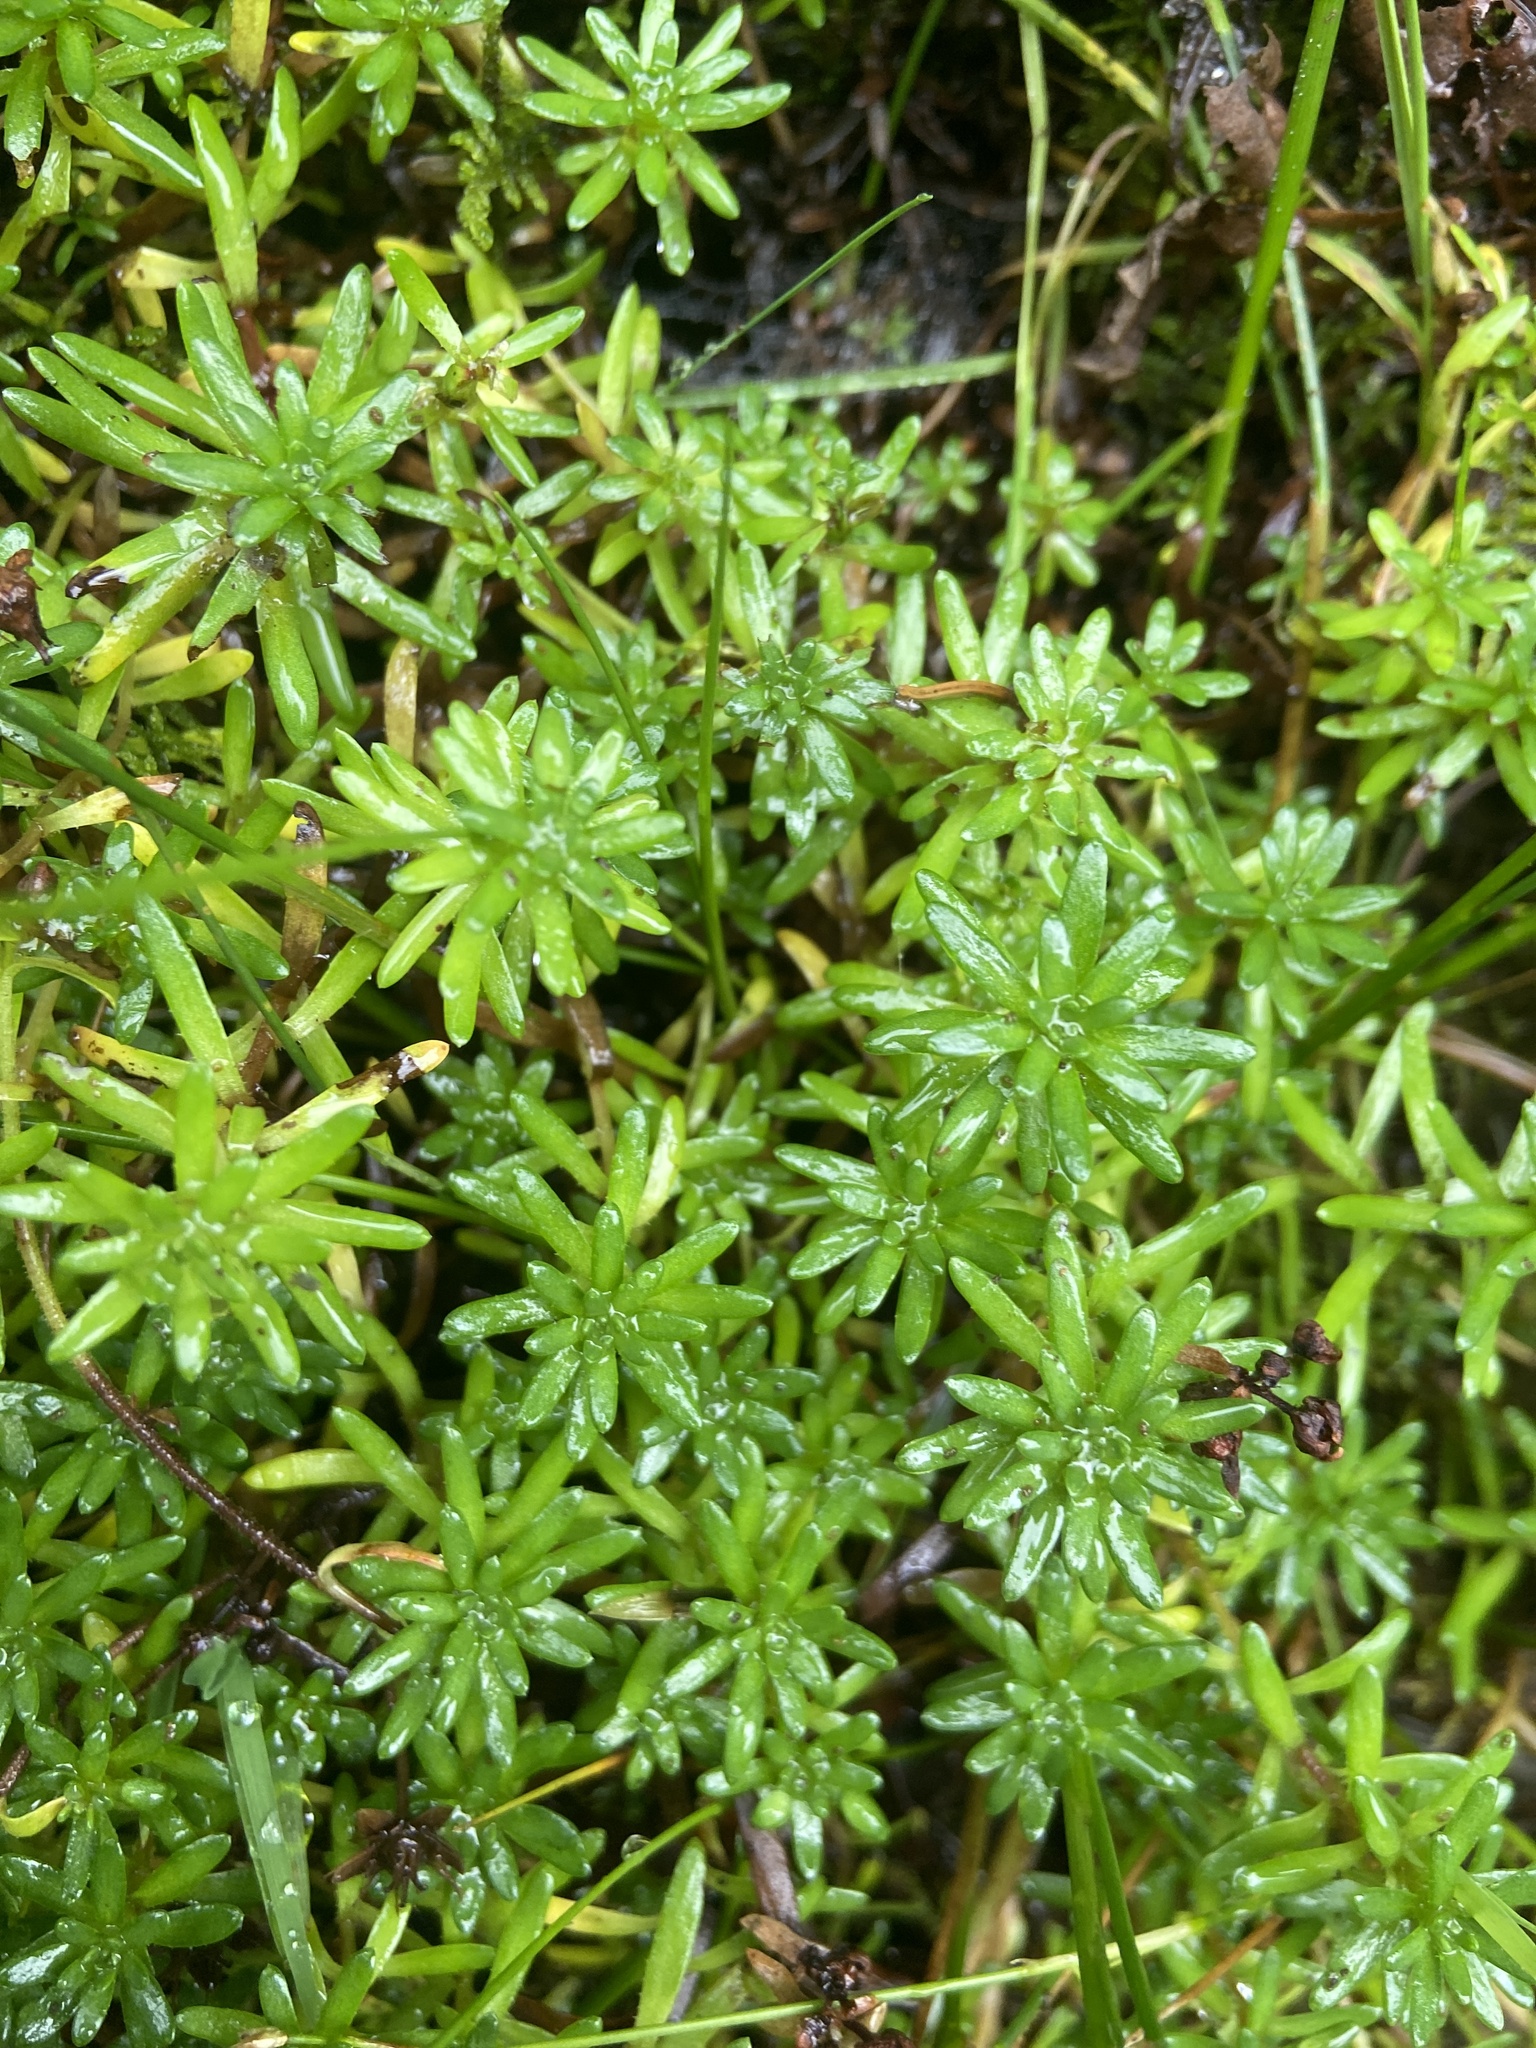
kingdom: Plantae
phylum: Tracheophyta
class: Magnoliopsida
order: Saxifragales
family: Saxifragaceae
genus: Saxifraga
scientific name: Saxifraga aizoides
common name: Yellow mountain saxifrage
